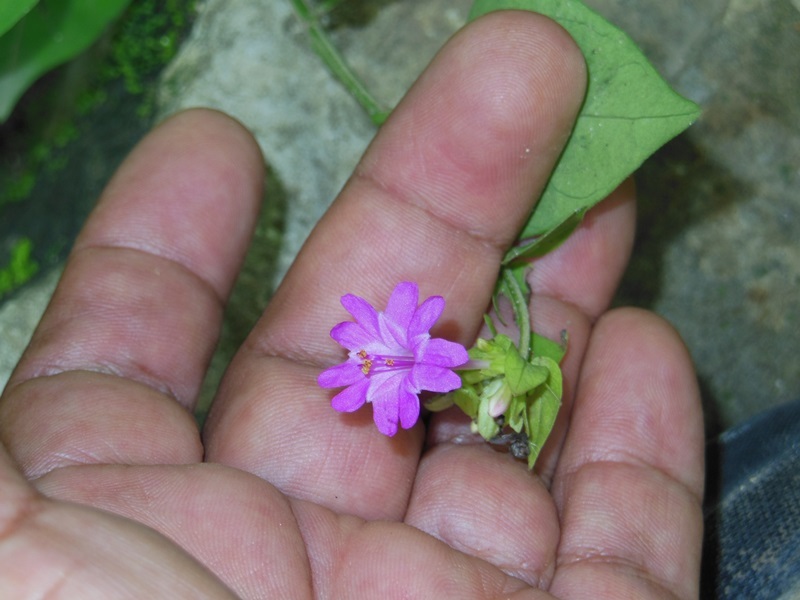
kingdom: Plantae
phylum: Tracheophyta
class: Magnoliopsida
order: Caryophyllales
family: Nyctaginaceae
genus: Mirabilis
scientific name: Mirabilis albida
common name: Hairy four-o'clock
